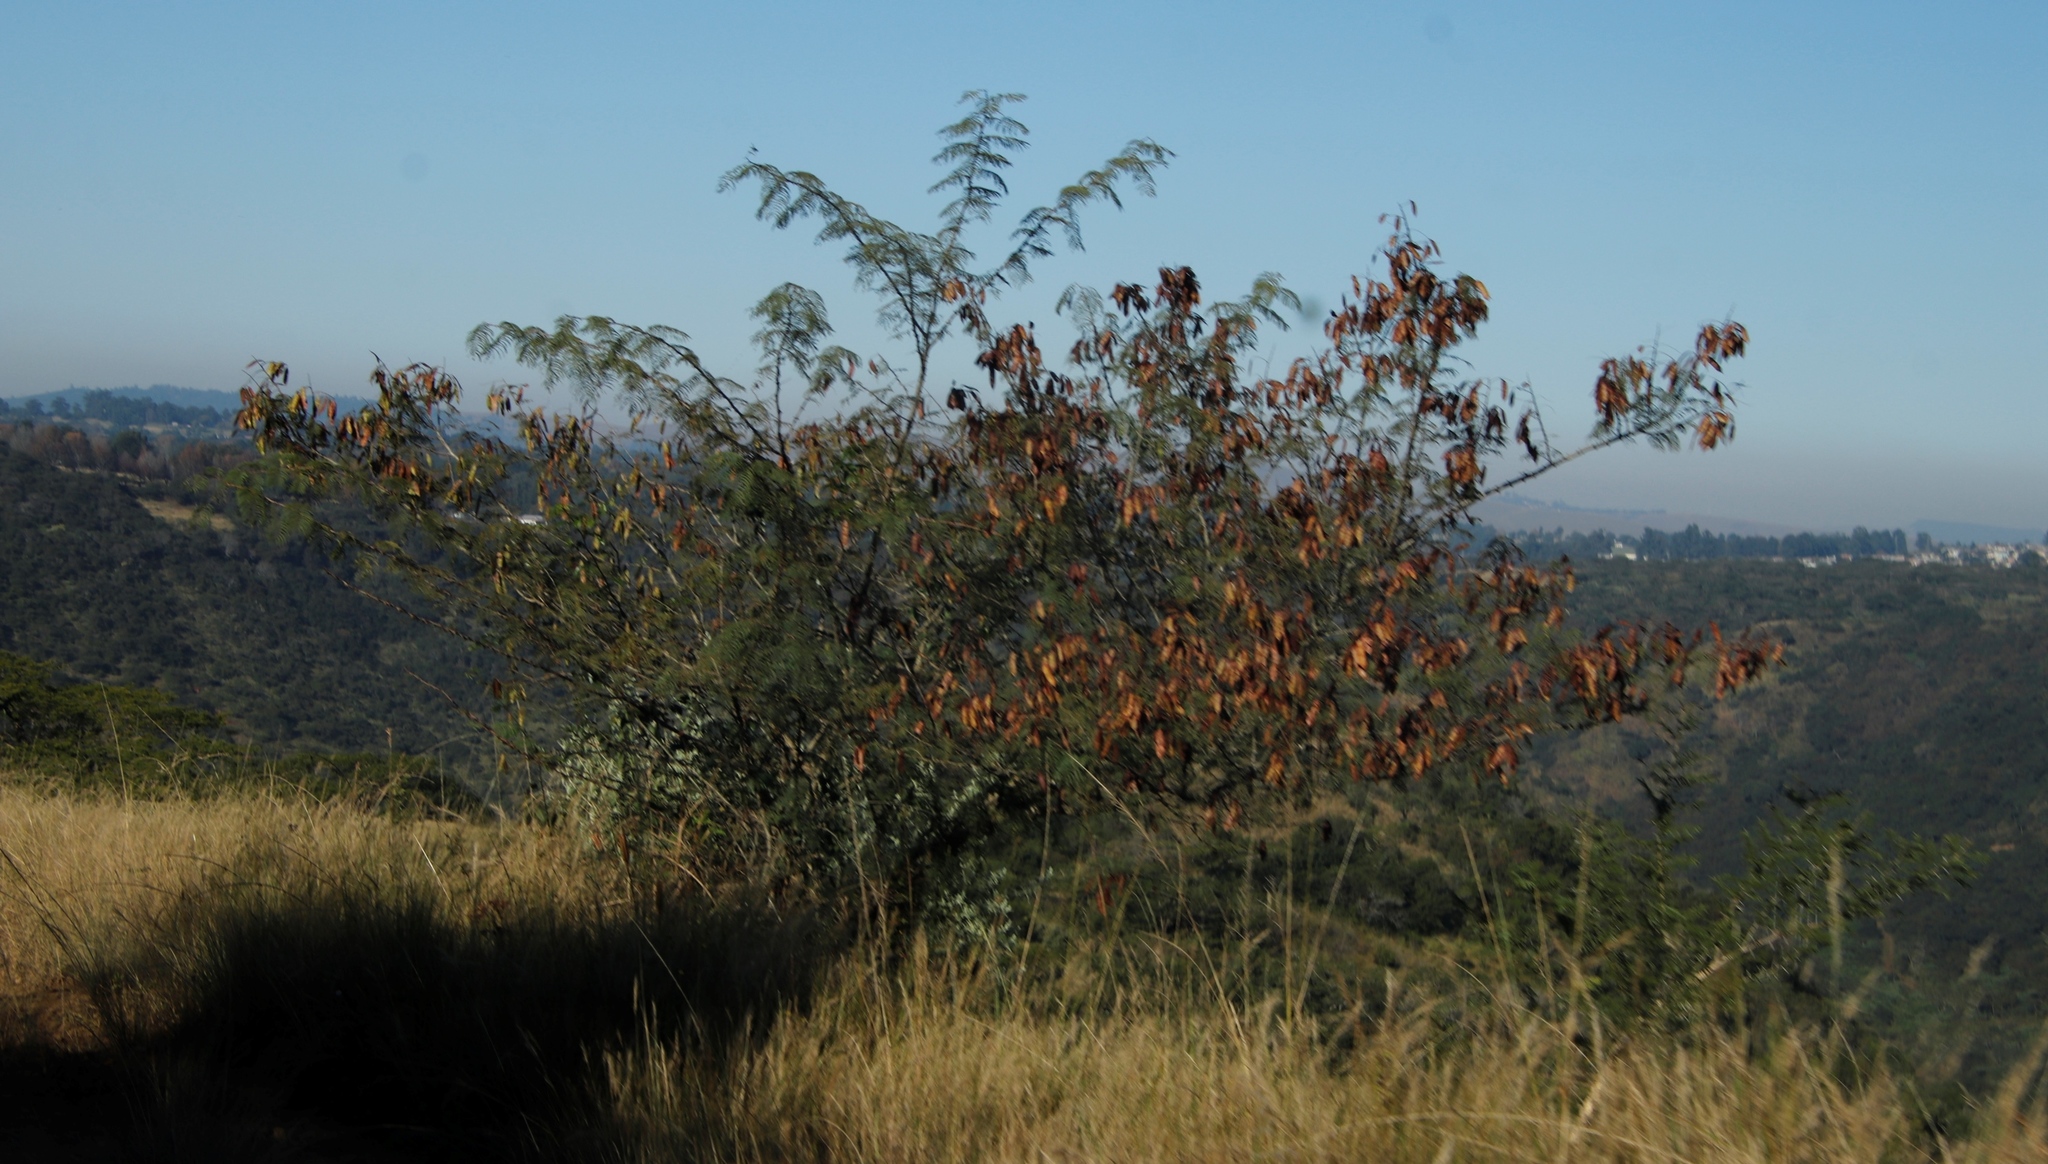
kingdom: Plantae
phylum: Tracheophyta
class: Magnoliopsida
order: Fabales
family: Fabaceae
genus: Senegalia
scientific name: Senegalia ataxacantha
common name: Flame acacia
